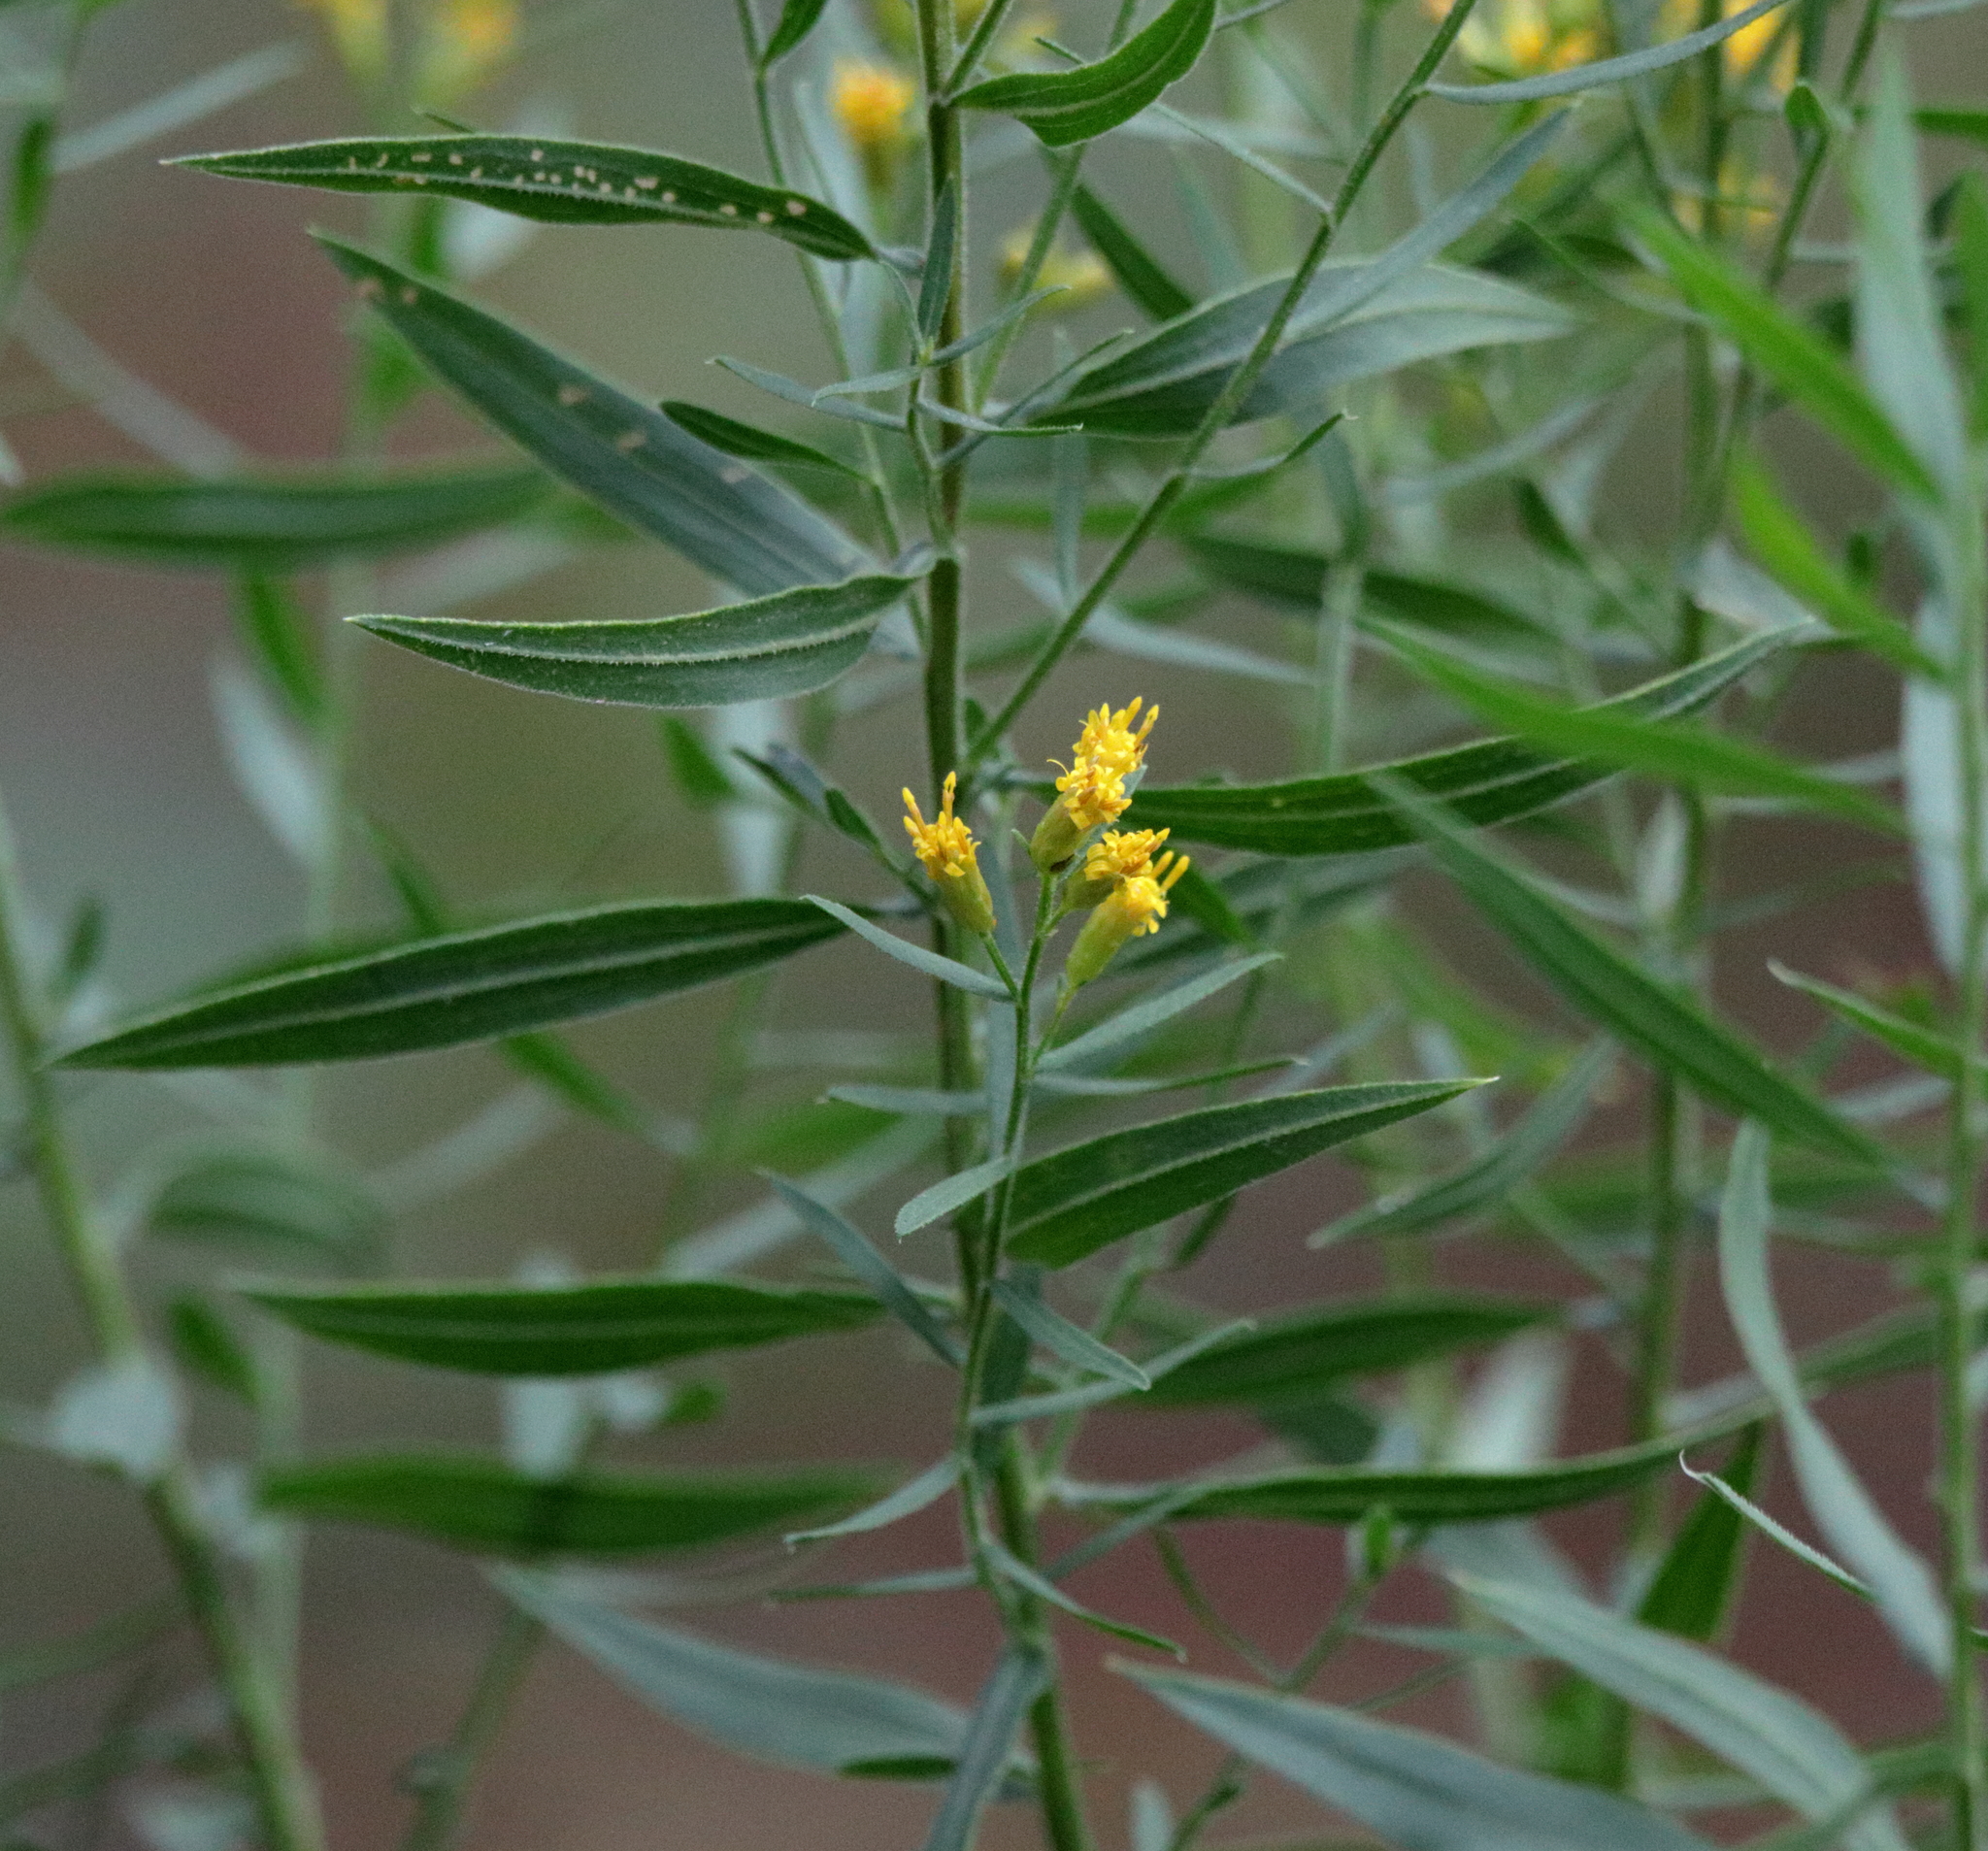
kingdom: Plantae
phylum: Tracheophyta
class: Magnoliopsida
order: Asterales
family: Asteraceae
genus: Euthamia
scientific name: Euthamia scabra
